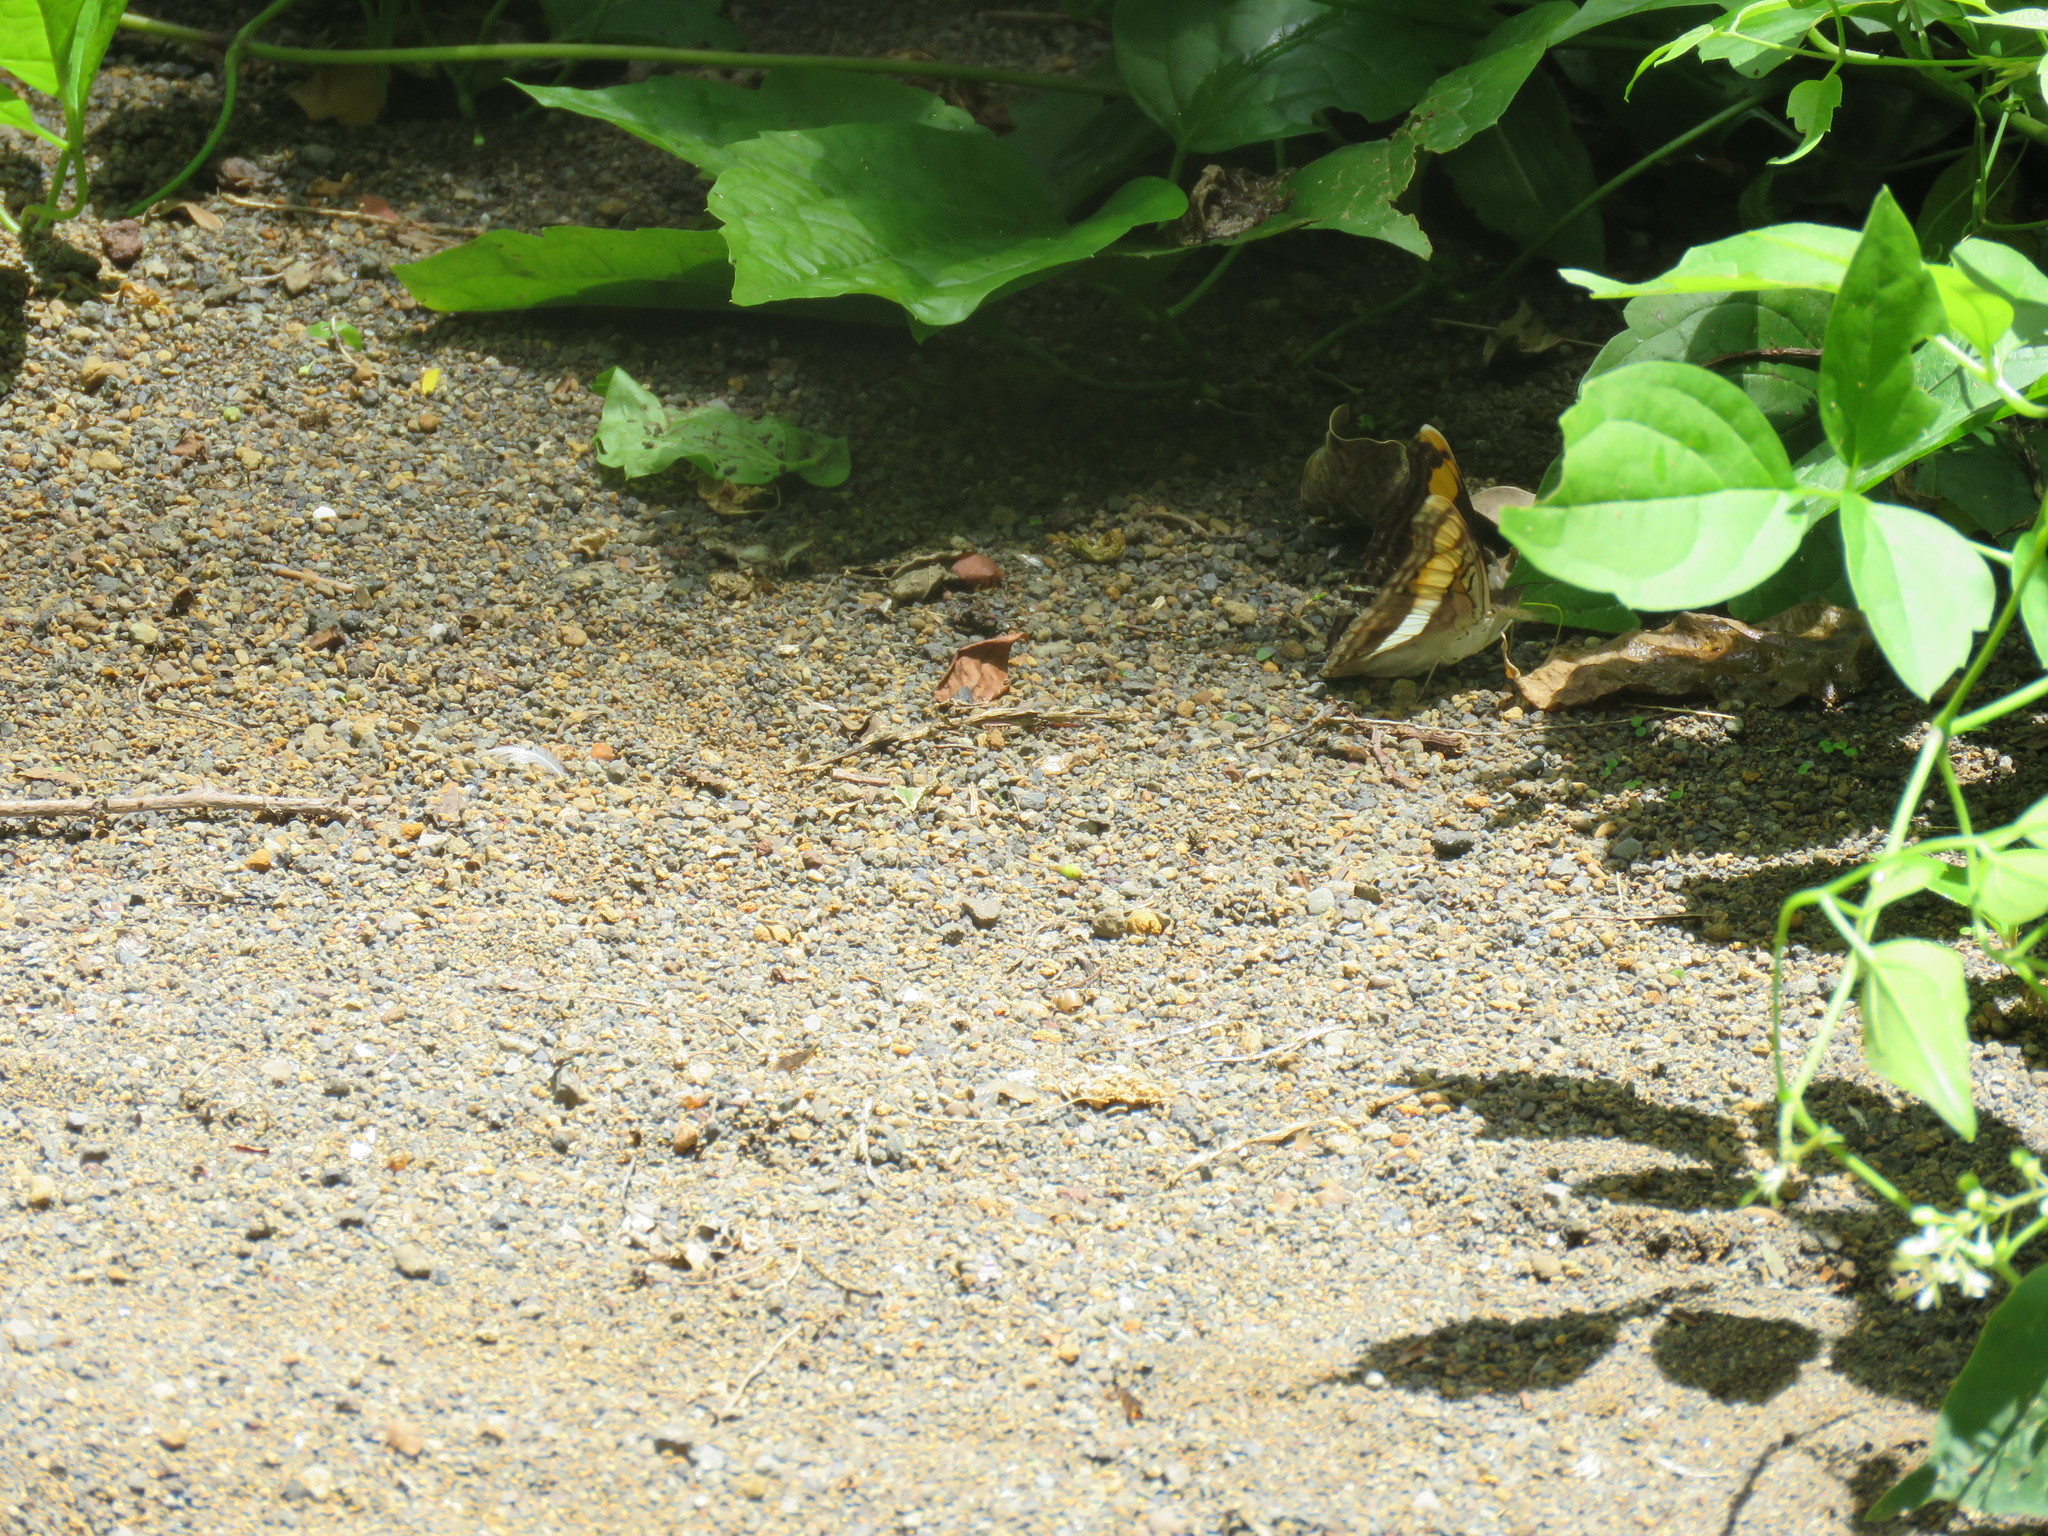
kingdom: Animalia
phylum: Arthropoda
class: Insecta
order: Lepidoptera
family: Nymphalidae
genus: Doxocopa
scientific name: Doxocopa laure
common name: Silver emperor
